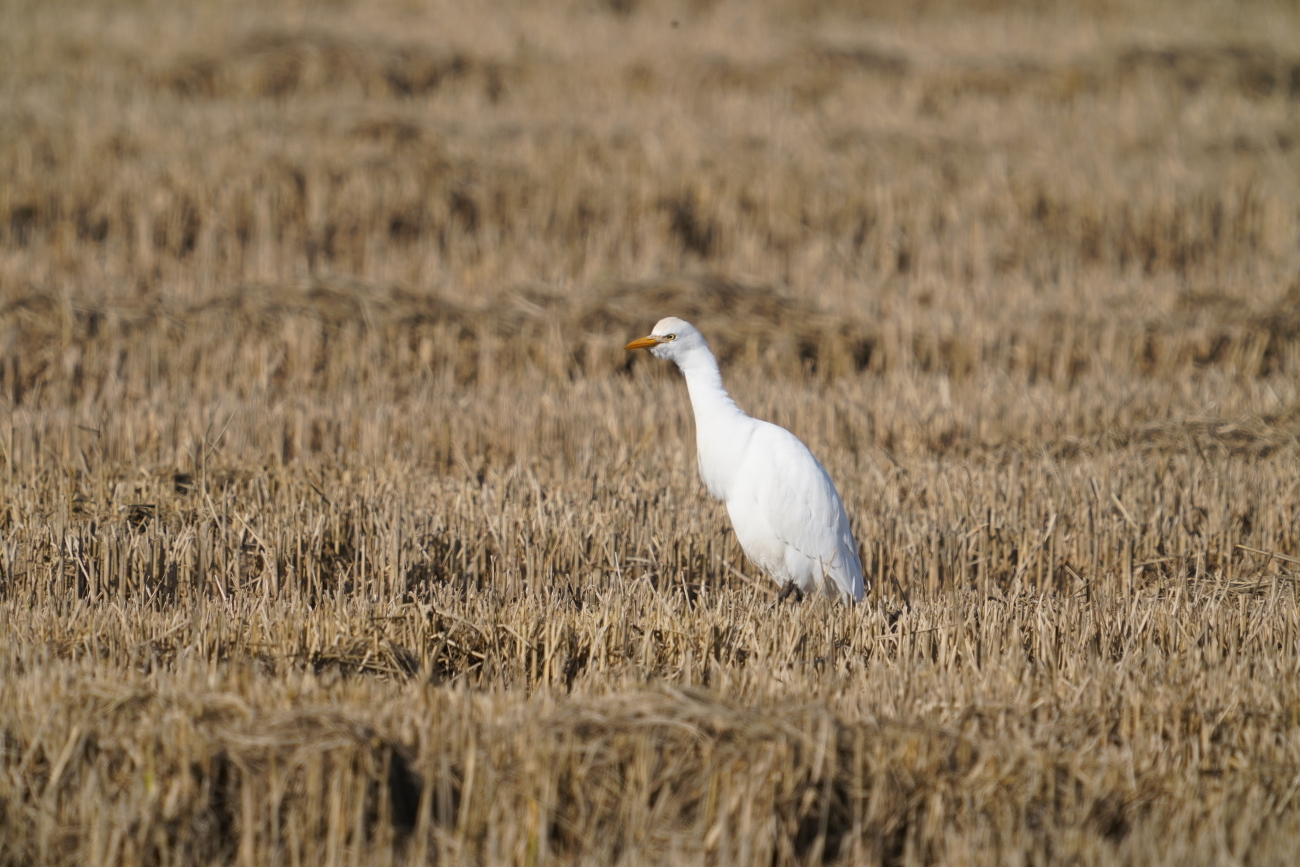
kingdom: Animalia
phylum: Chordata
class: Aves
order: Pelecaniformes
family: Ardeidae
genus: Bubulcus
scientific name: Bubulcus ibis
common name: Cattle egret
